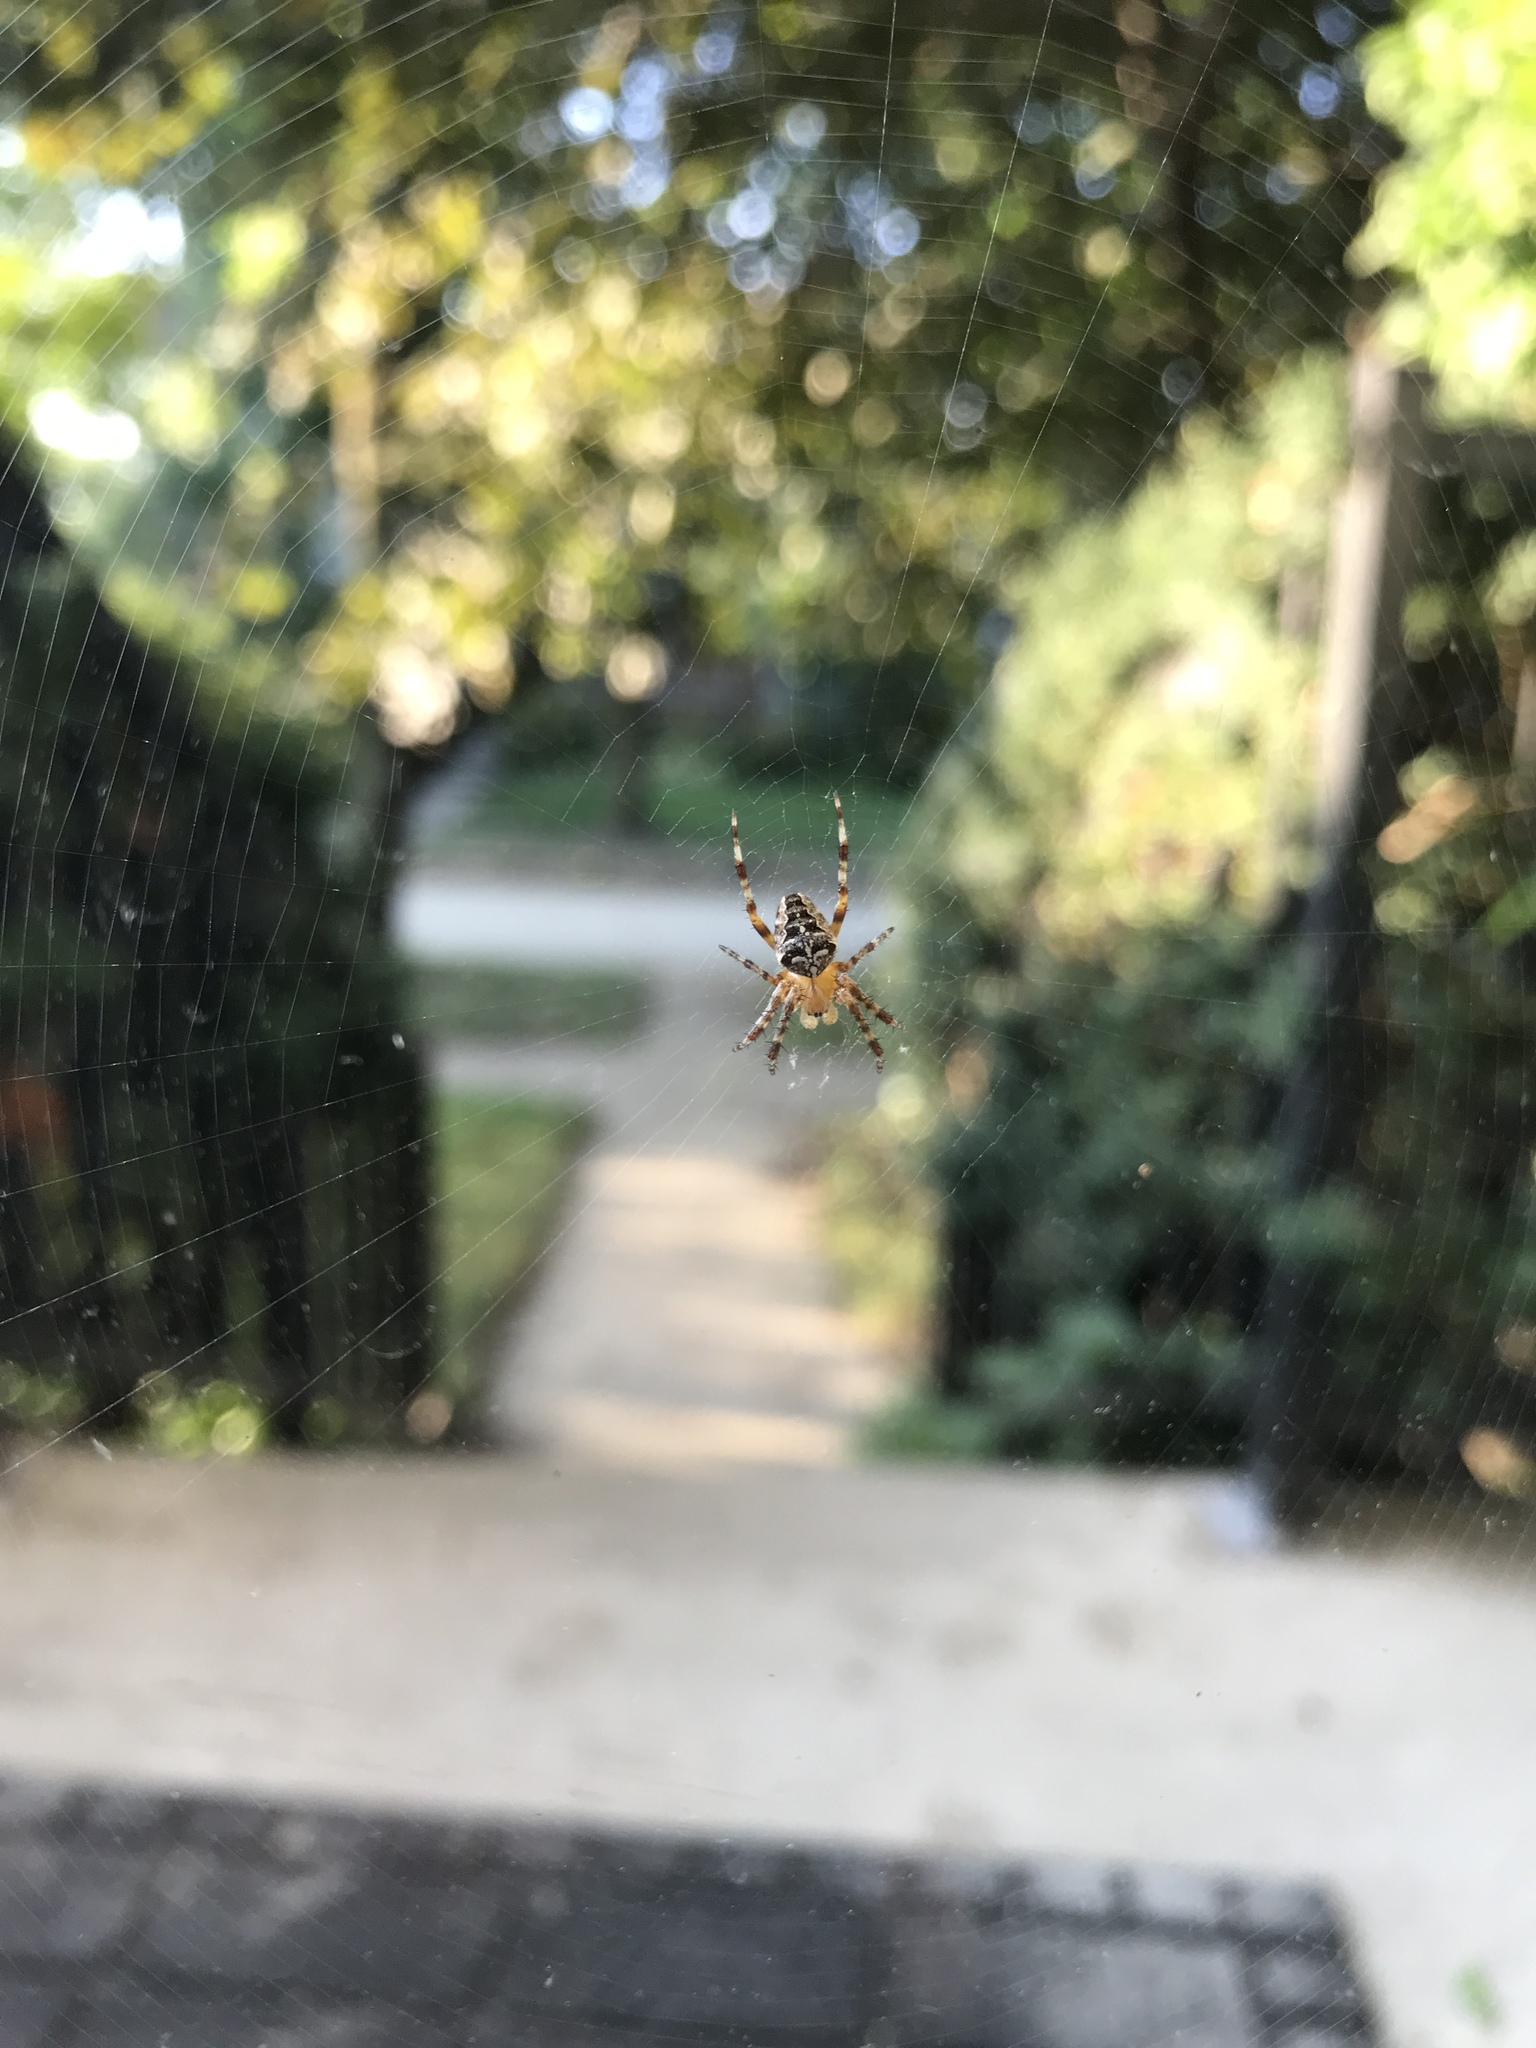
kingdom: Animalia
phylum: Arthropoda
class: Arachnida
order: Araneae
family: Araneidae
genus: Araneus
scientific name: Araneus diadematus
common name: Cross orbweaver
